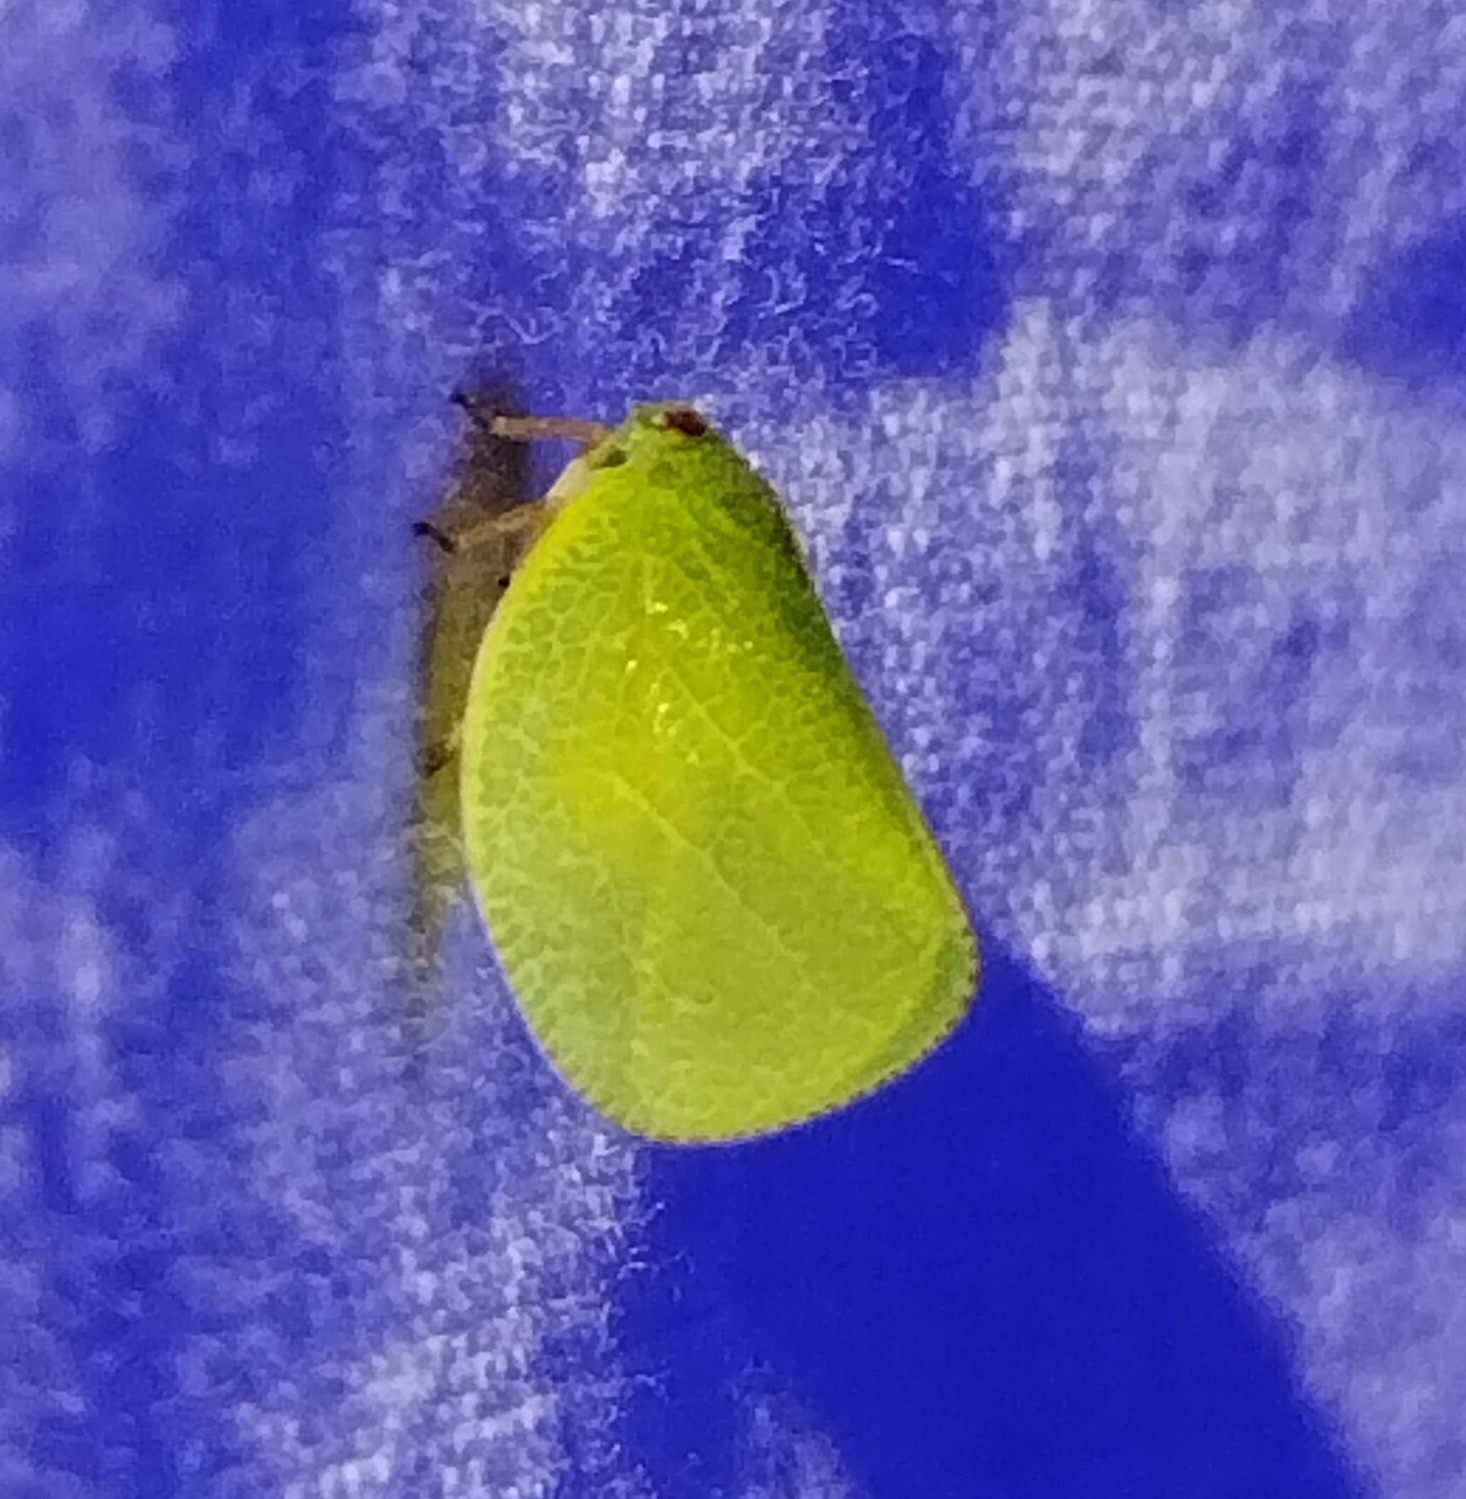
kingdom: Animalia
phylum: Arthropoda
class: Insecta
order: Hemiptera
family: Acanaloniidae
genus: Acanalonia
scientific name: Acanalonia servillei
